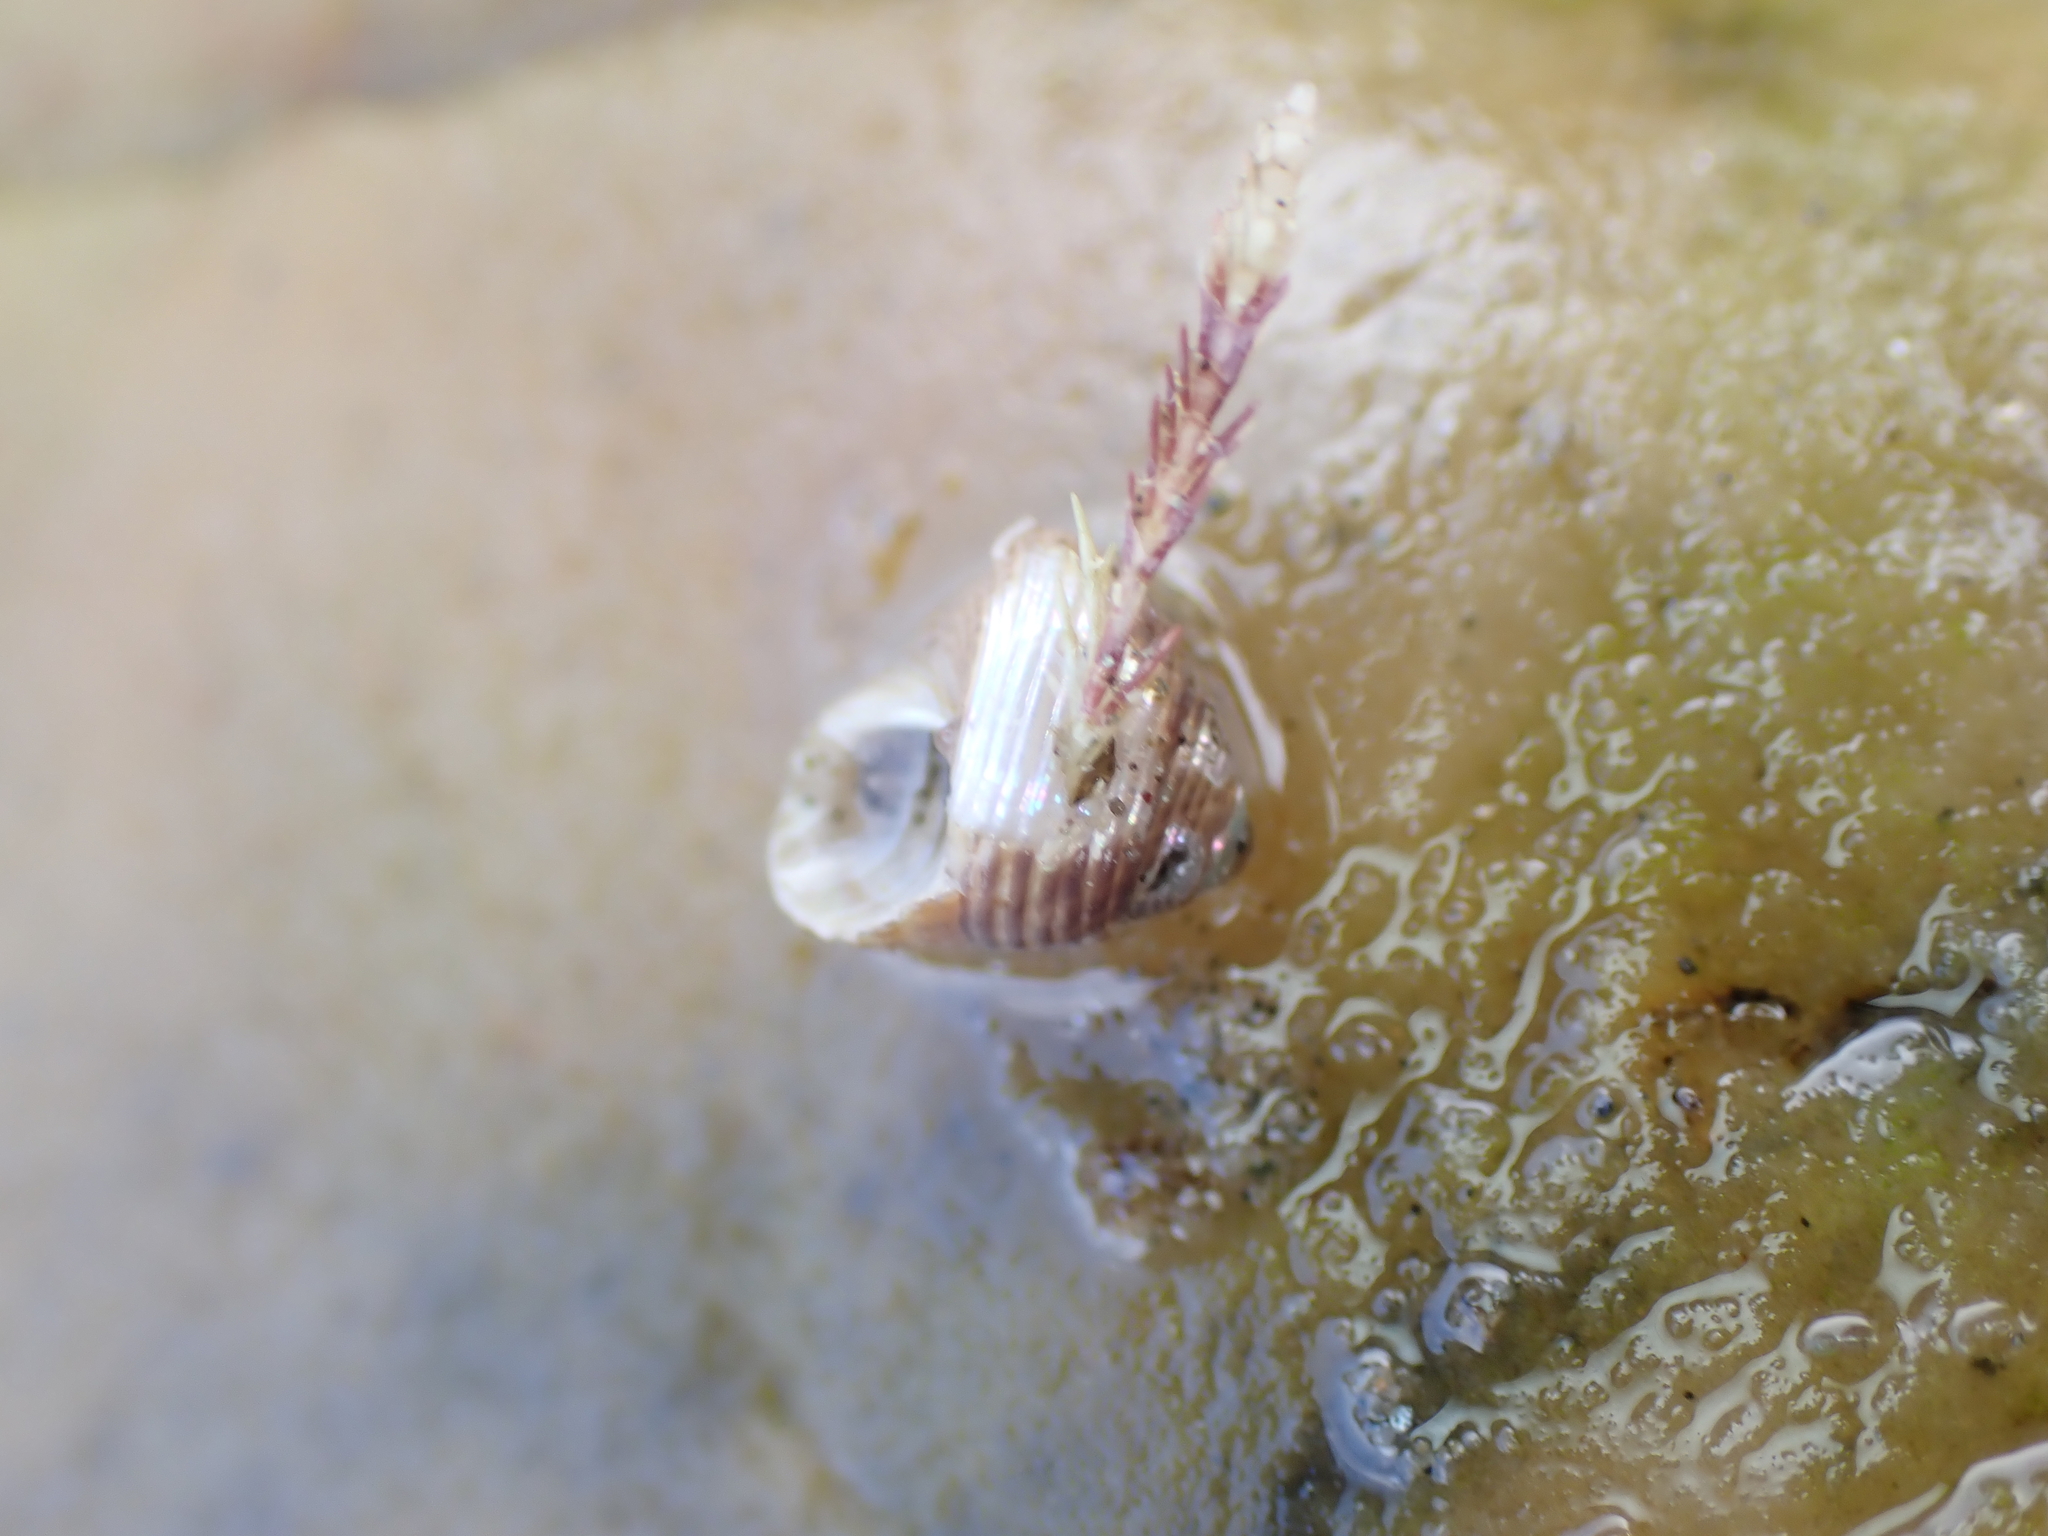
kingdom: Animalia
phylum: Mollusca
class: Gastropoda
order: Trochida
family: Trochidae
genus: Micrelenchus
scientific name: Micrelenchus tenebrosus
